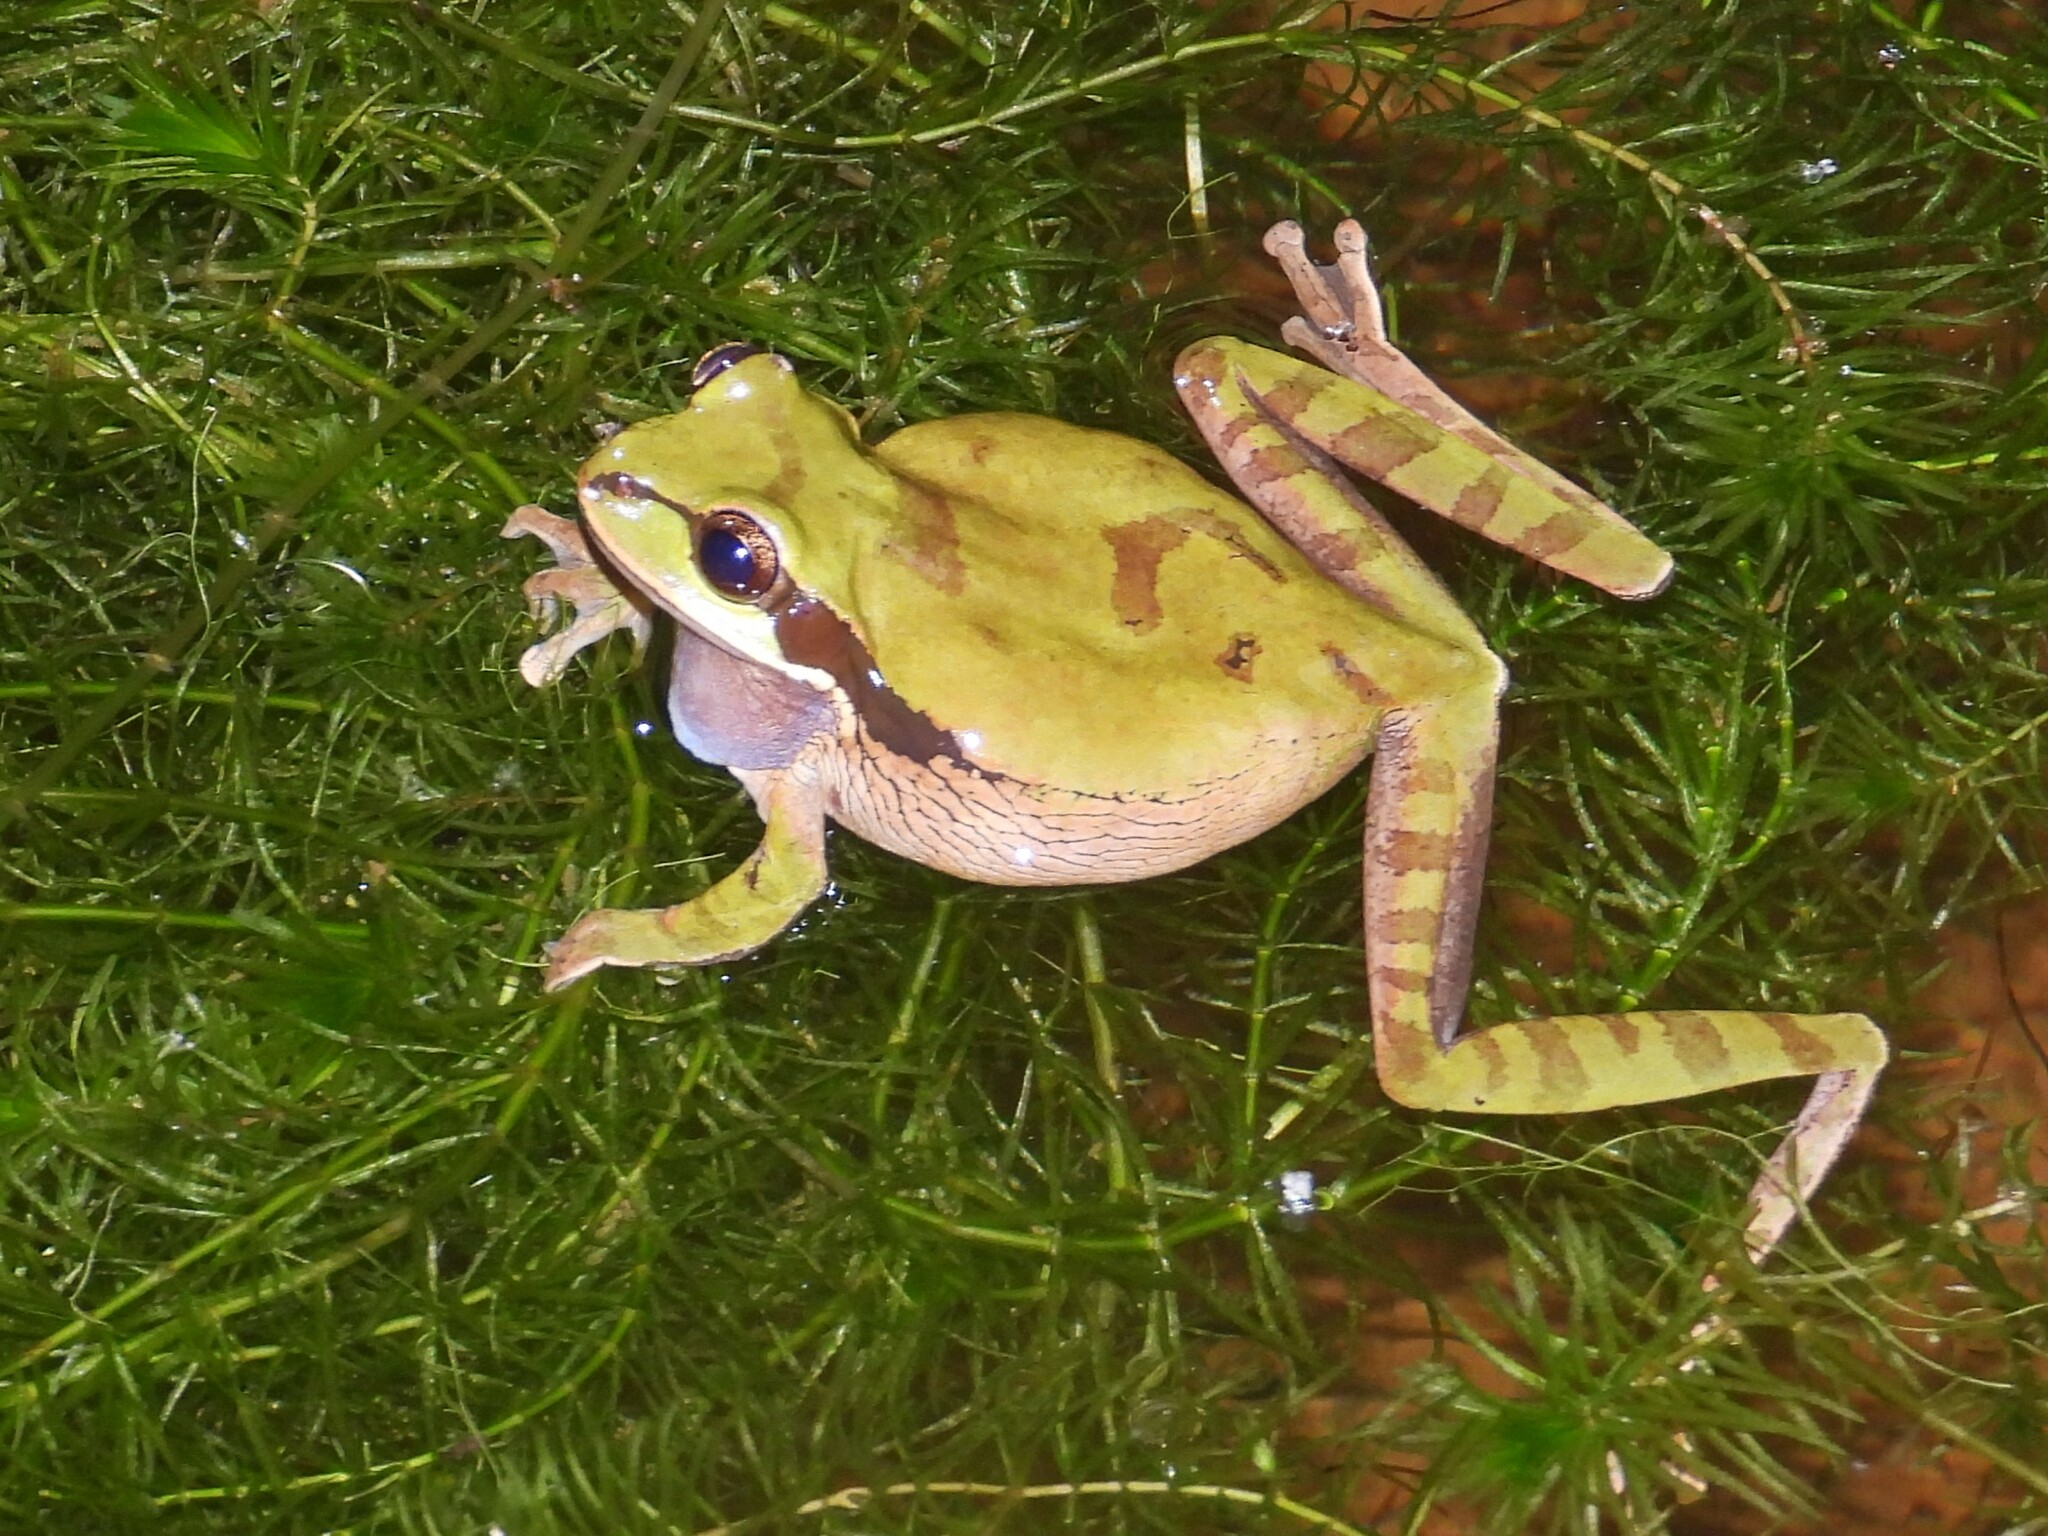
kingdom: Animalia
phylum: Chordata
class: Amphibia
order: Anura
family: Hylidae
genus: Smilisca
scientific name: Smilisca phaeota
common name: Central american smilisca
